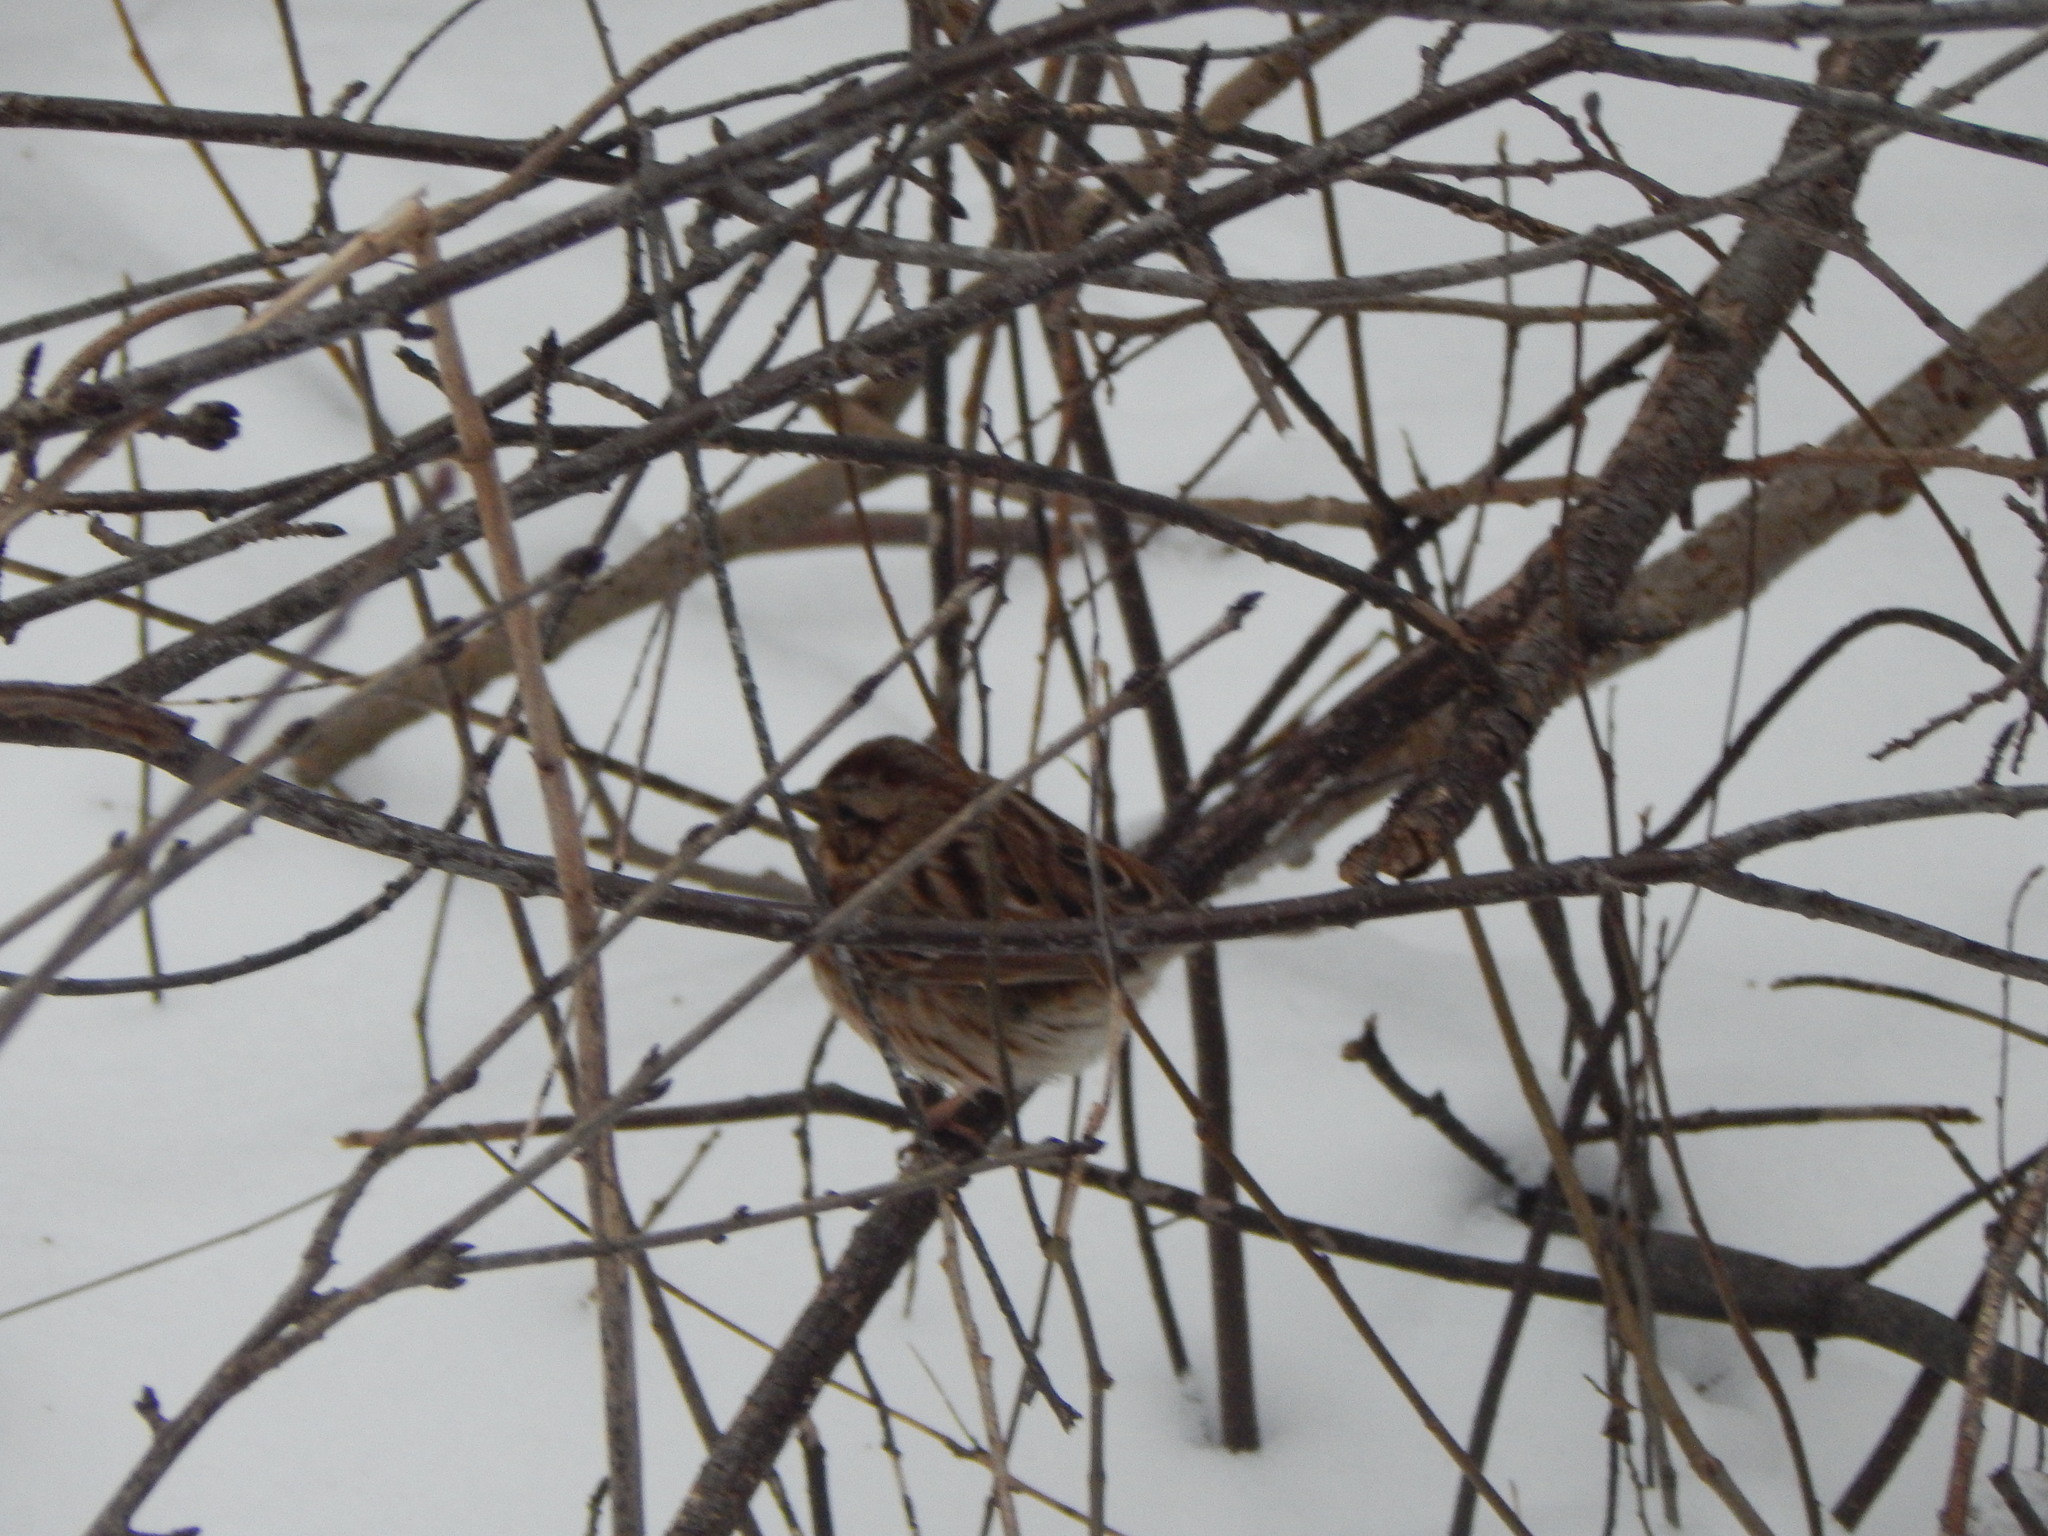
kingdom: Animalia
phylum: Chordata
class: Aves
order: Passeriformes
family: Passerellidae
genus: Melospiza
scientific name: Melospiza melodia
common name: Song sparrow
